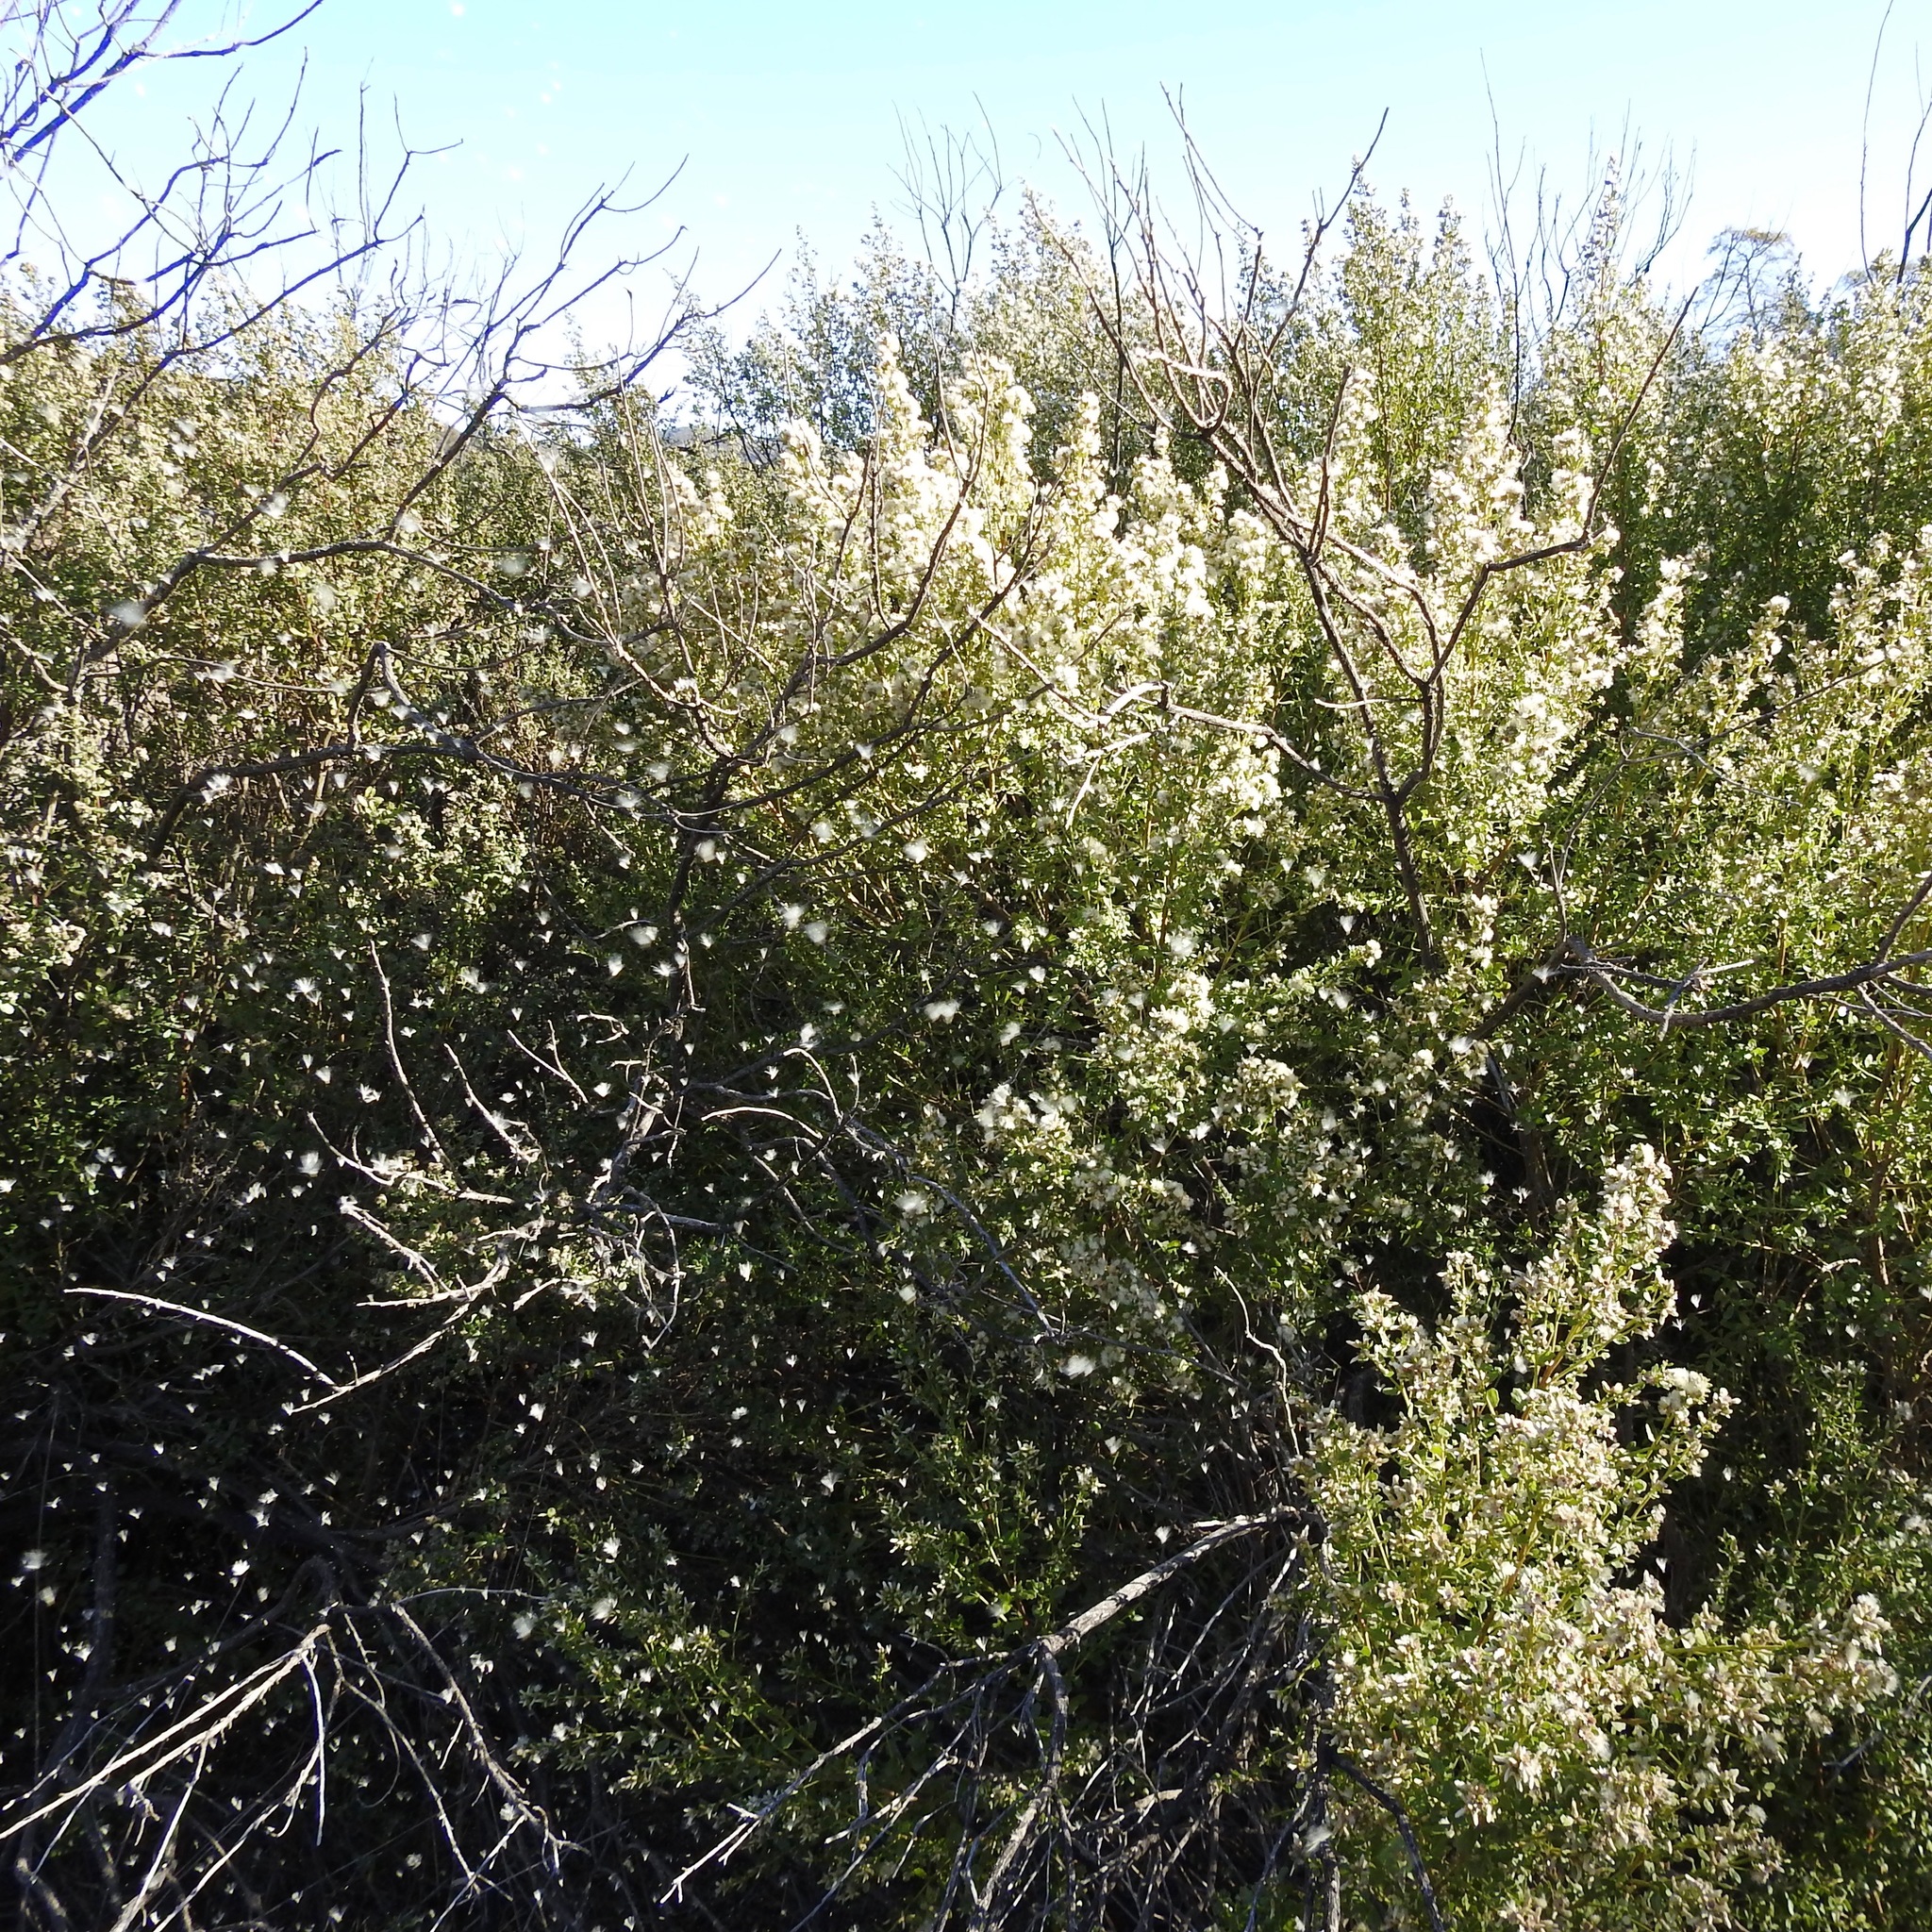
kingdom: Plantae
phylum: Tracheophyta
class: Magnoliopsida
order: Asterales
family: Asteraceae
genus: Baccharis
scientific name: Baccharis pilularis
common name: Coyotebrush
